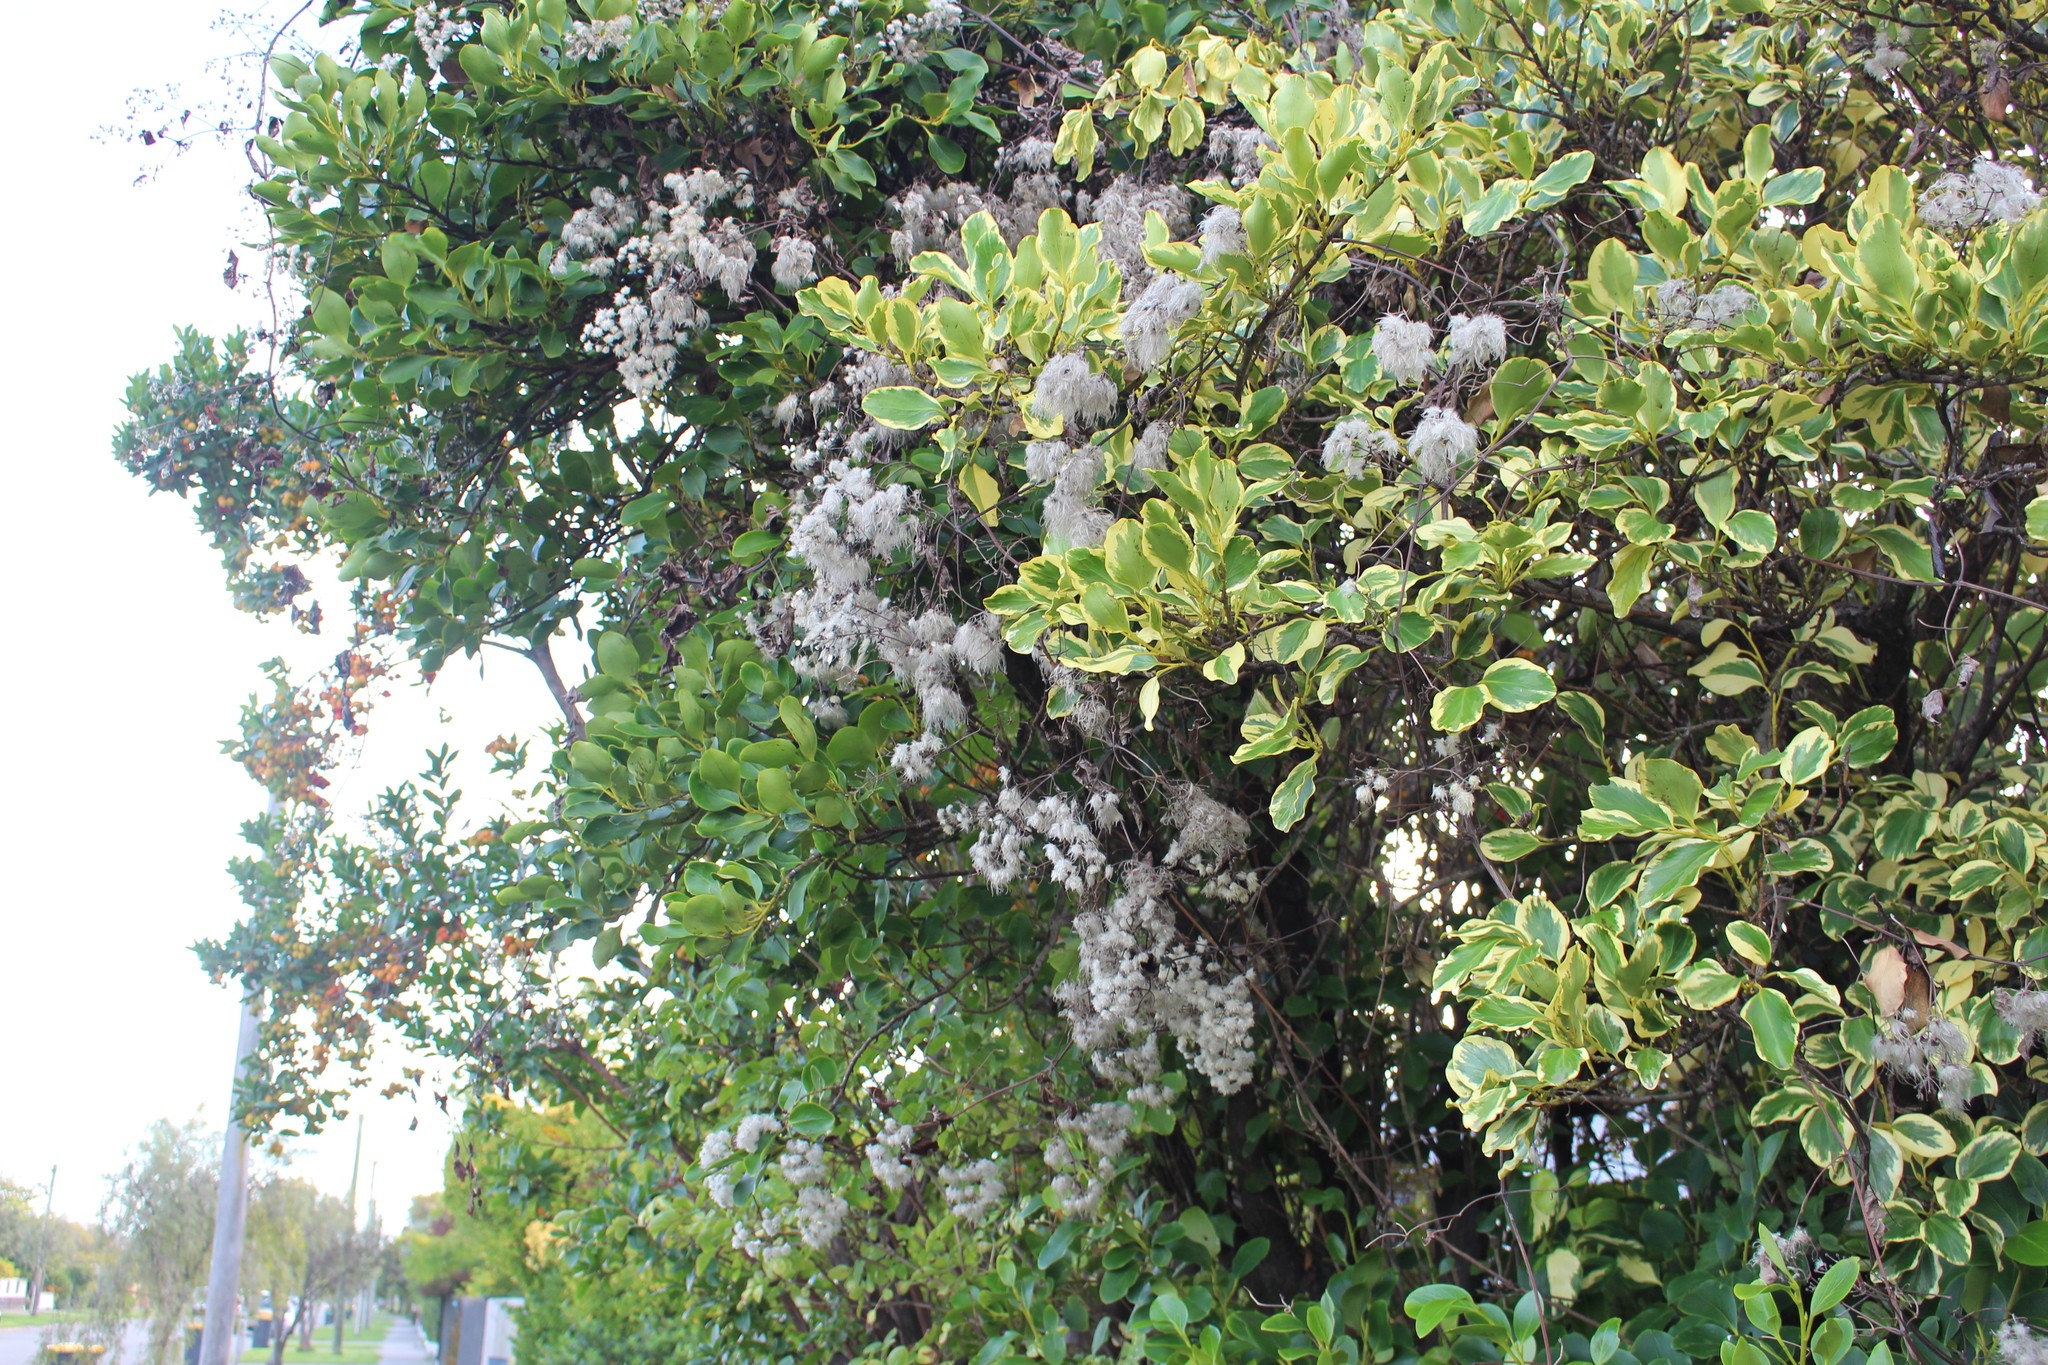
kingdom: Plantae
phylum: Tracheophyta
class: Magnoliopsida
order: Ranunculales
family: Ranunculaceae
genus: Clematis
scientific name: Clematis vitalba
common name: Evergreen clematis
